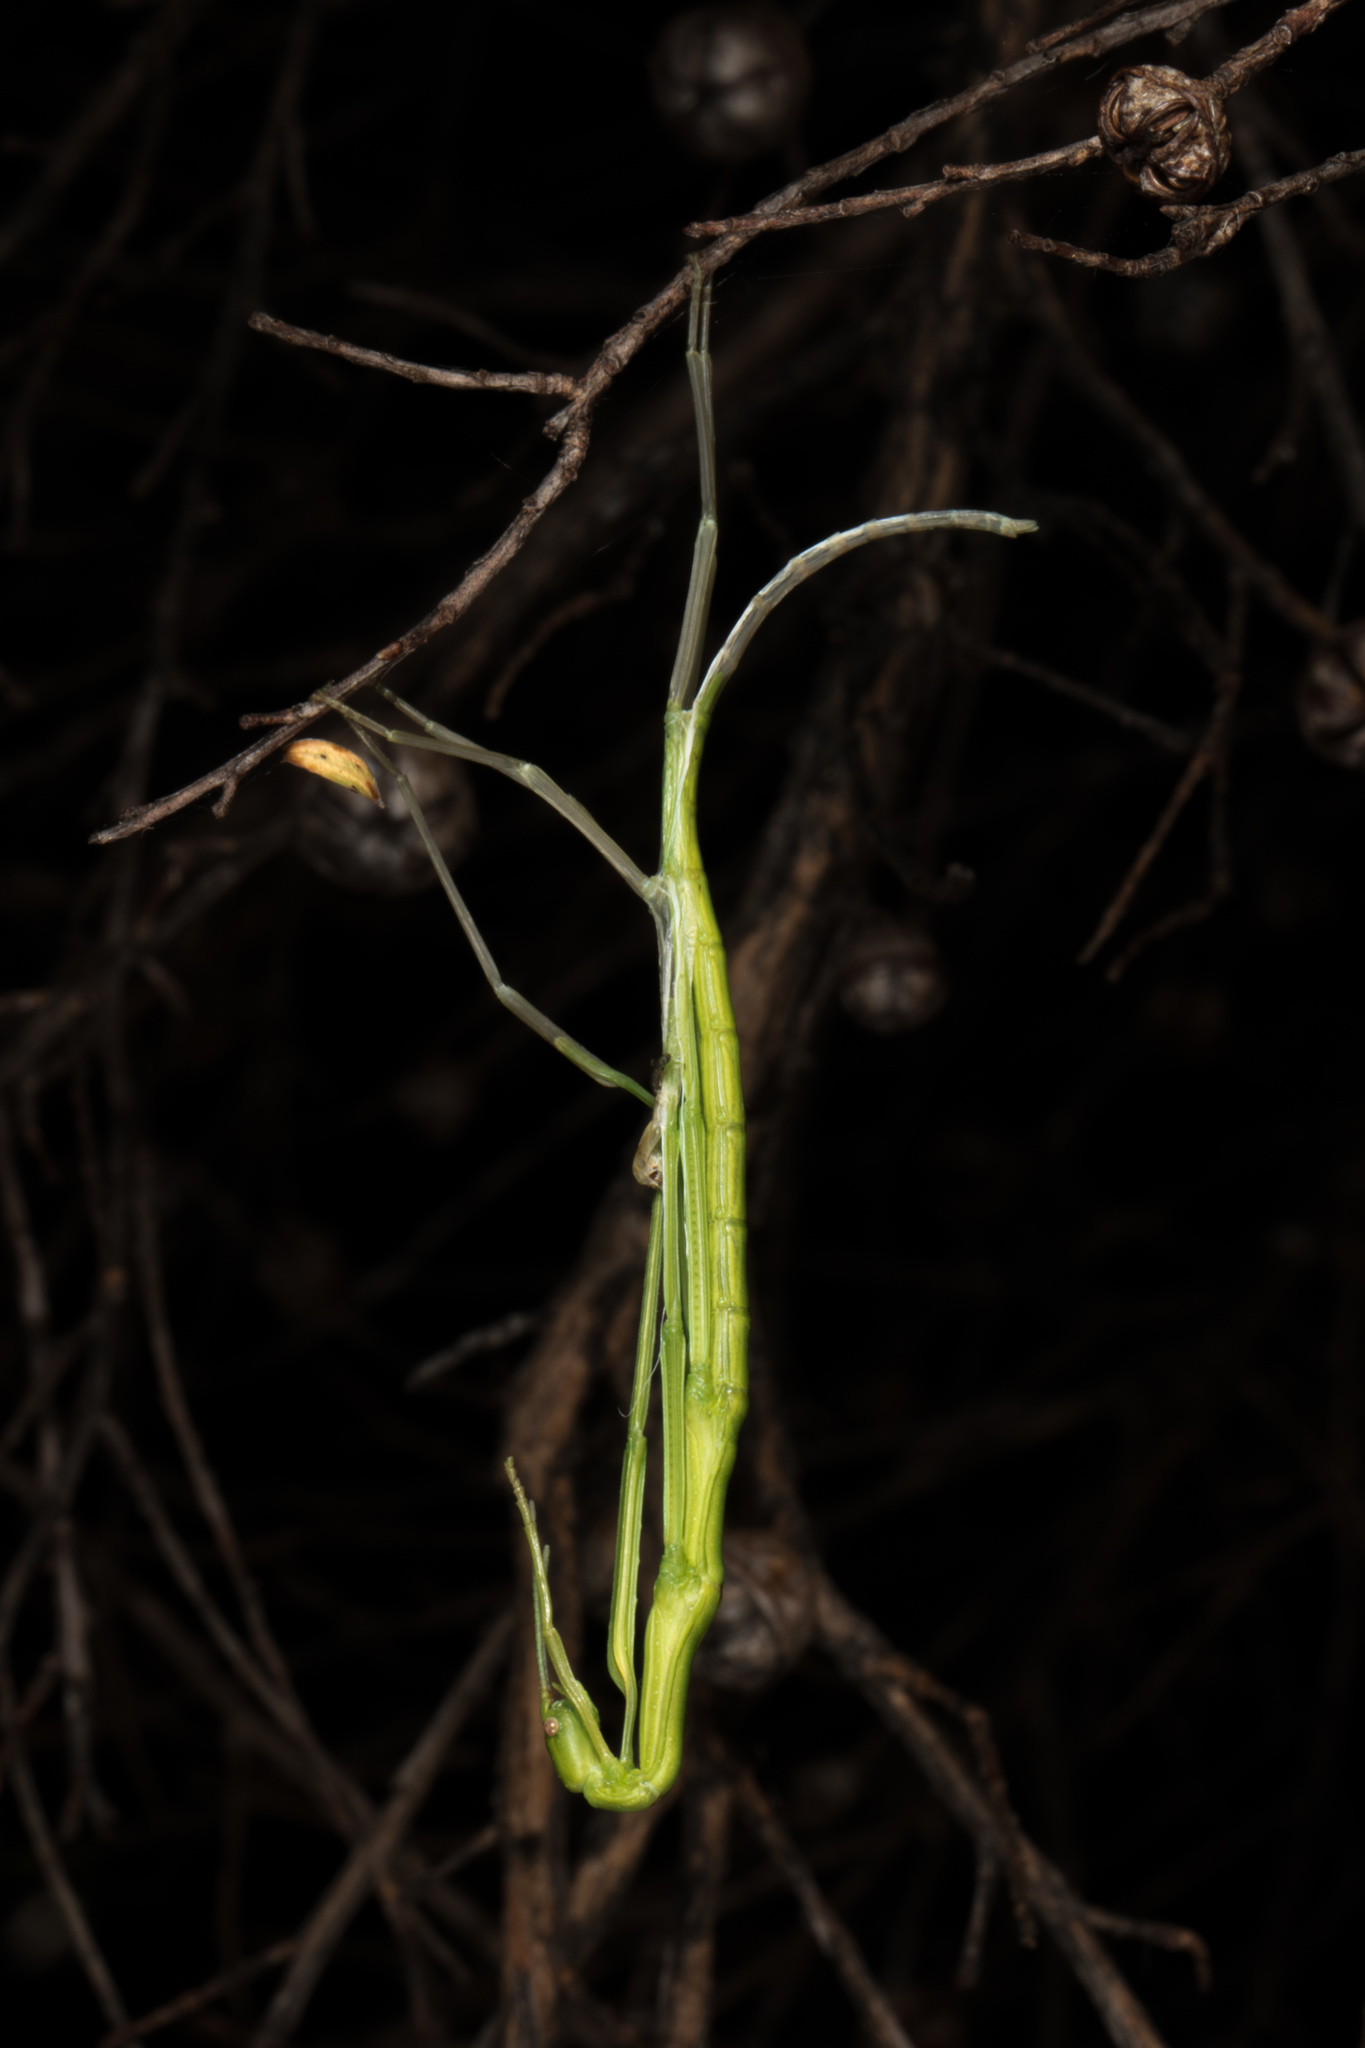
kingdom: Animalia
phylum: Arthropoda
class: Insecta
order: Phasmida
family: Phasmatidae
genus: Clitarchus
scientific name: Clitarchus hookeri
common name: Smooth stick insect
